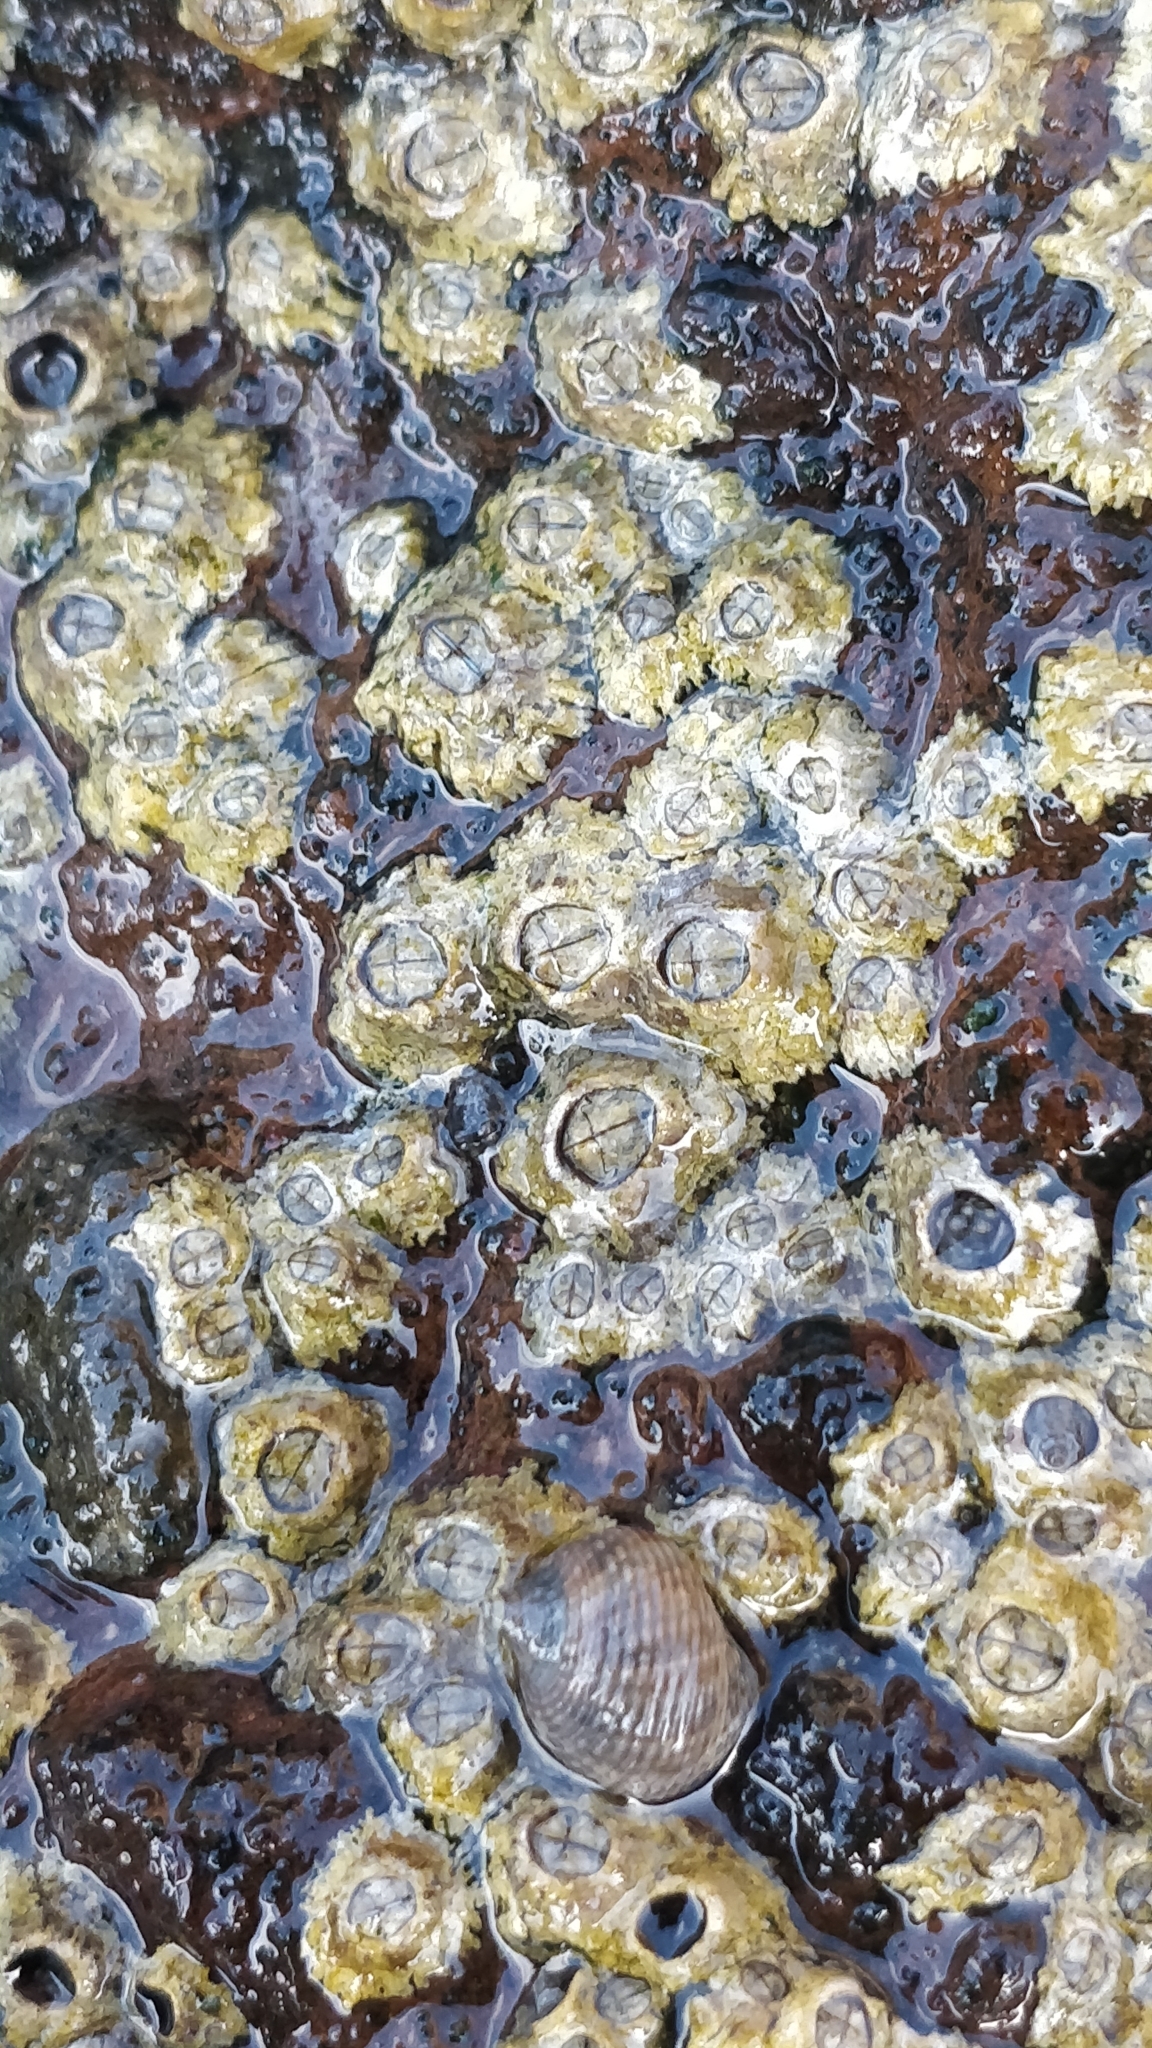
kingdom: Animalia
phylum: Arthropoda
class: Maxillopoda
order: Sessilia
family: Chthamalidae
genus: Chthamalus
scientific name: Chthamalus stellatus
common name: Poli's stellate barnacle
